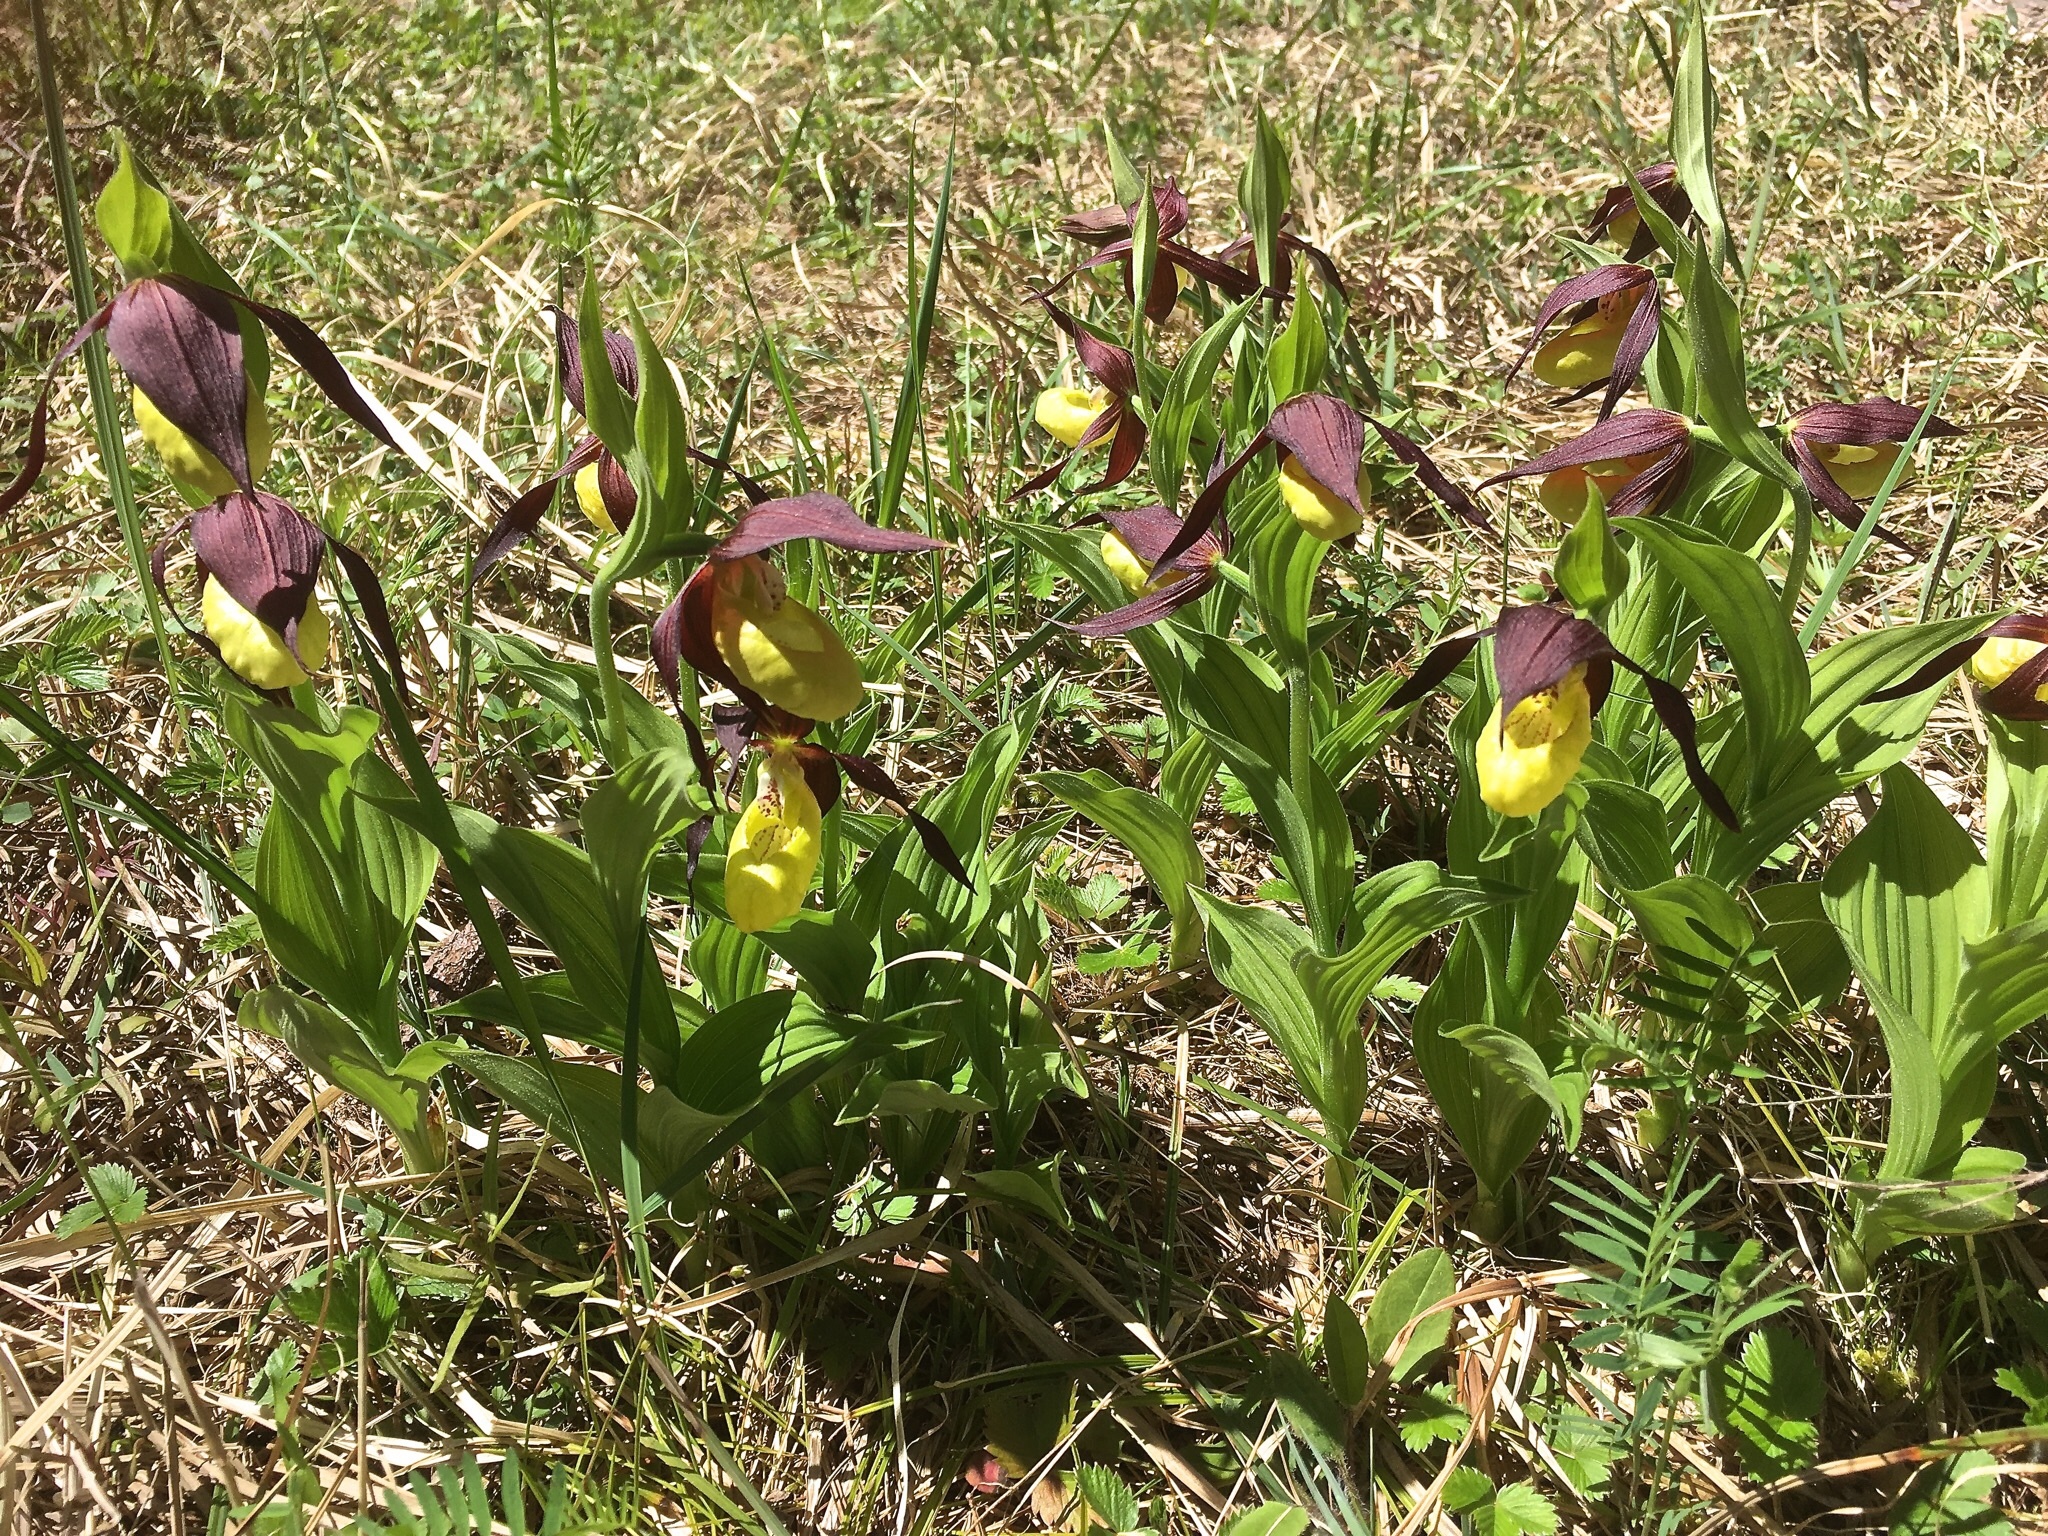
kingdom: Plantae
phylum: Tracheophyta
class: Liliopsida
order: Asparagales
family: Orchidaceae
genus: Cypripedium
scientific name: Cypripedium calceolus
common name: Lady's-slipper
